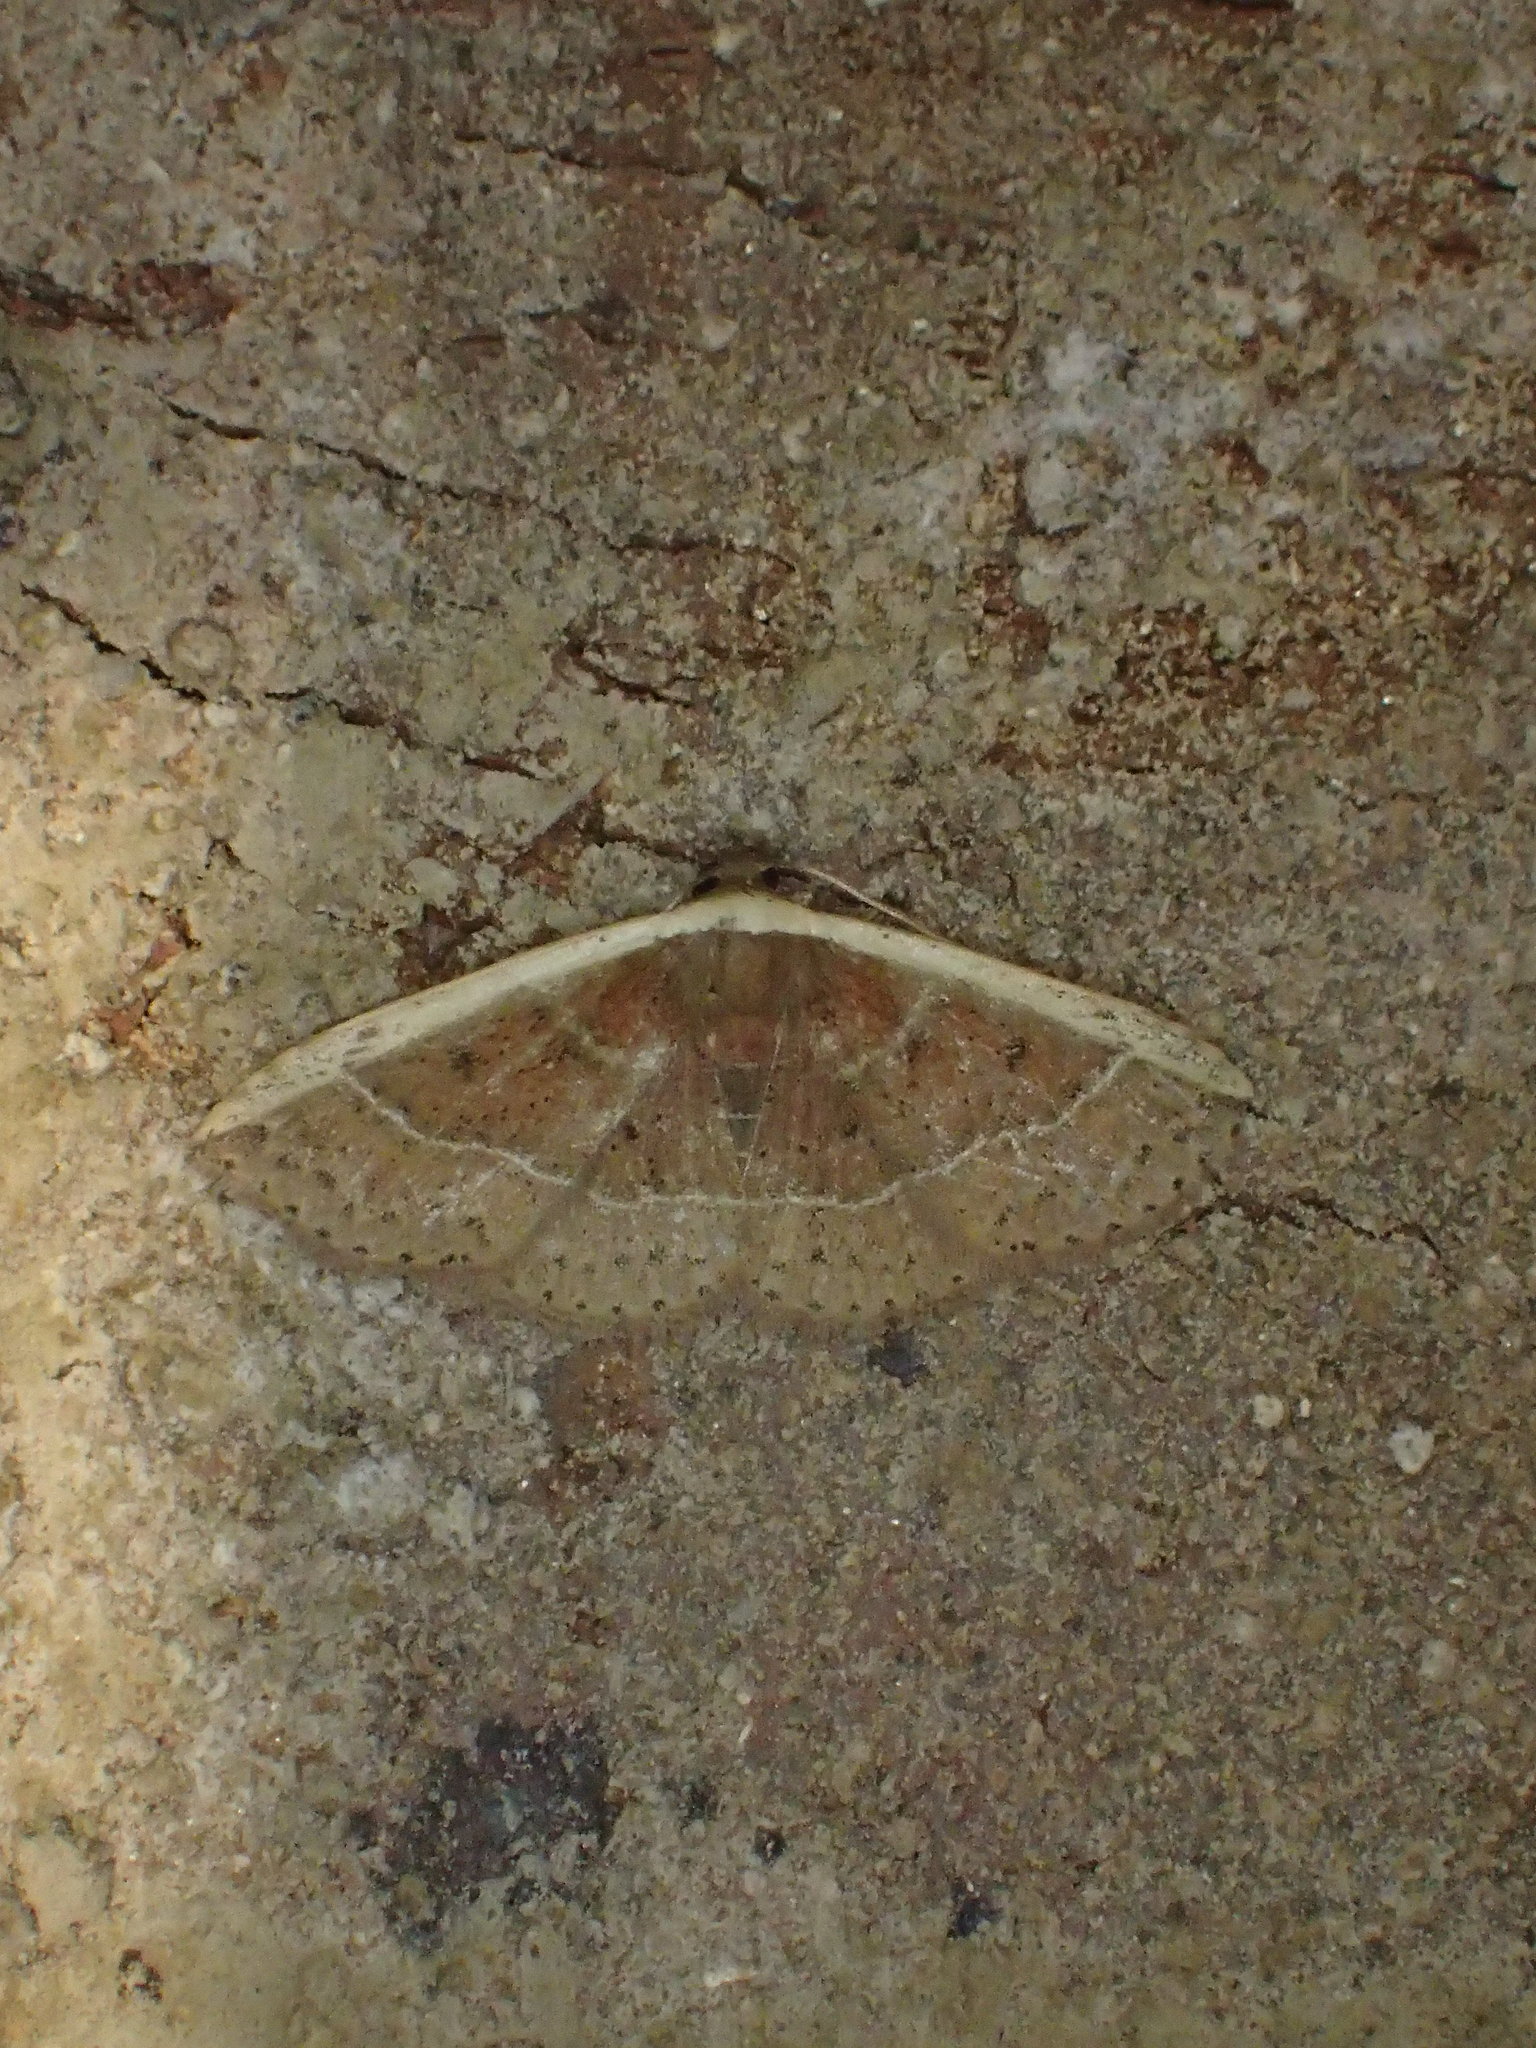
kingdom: Animalia
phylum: Arthropoda
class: Insecta
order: Lepidoptera
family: Noctuidae
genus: Ozarba
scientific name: Ozarba albocostaliata
